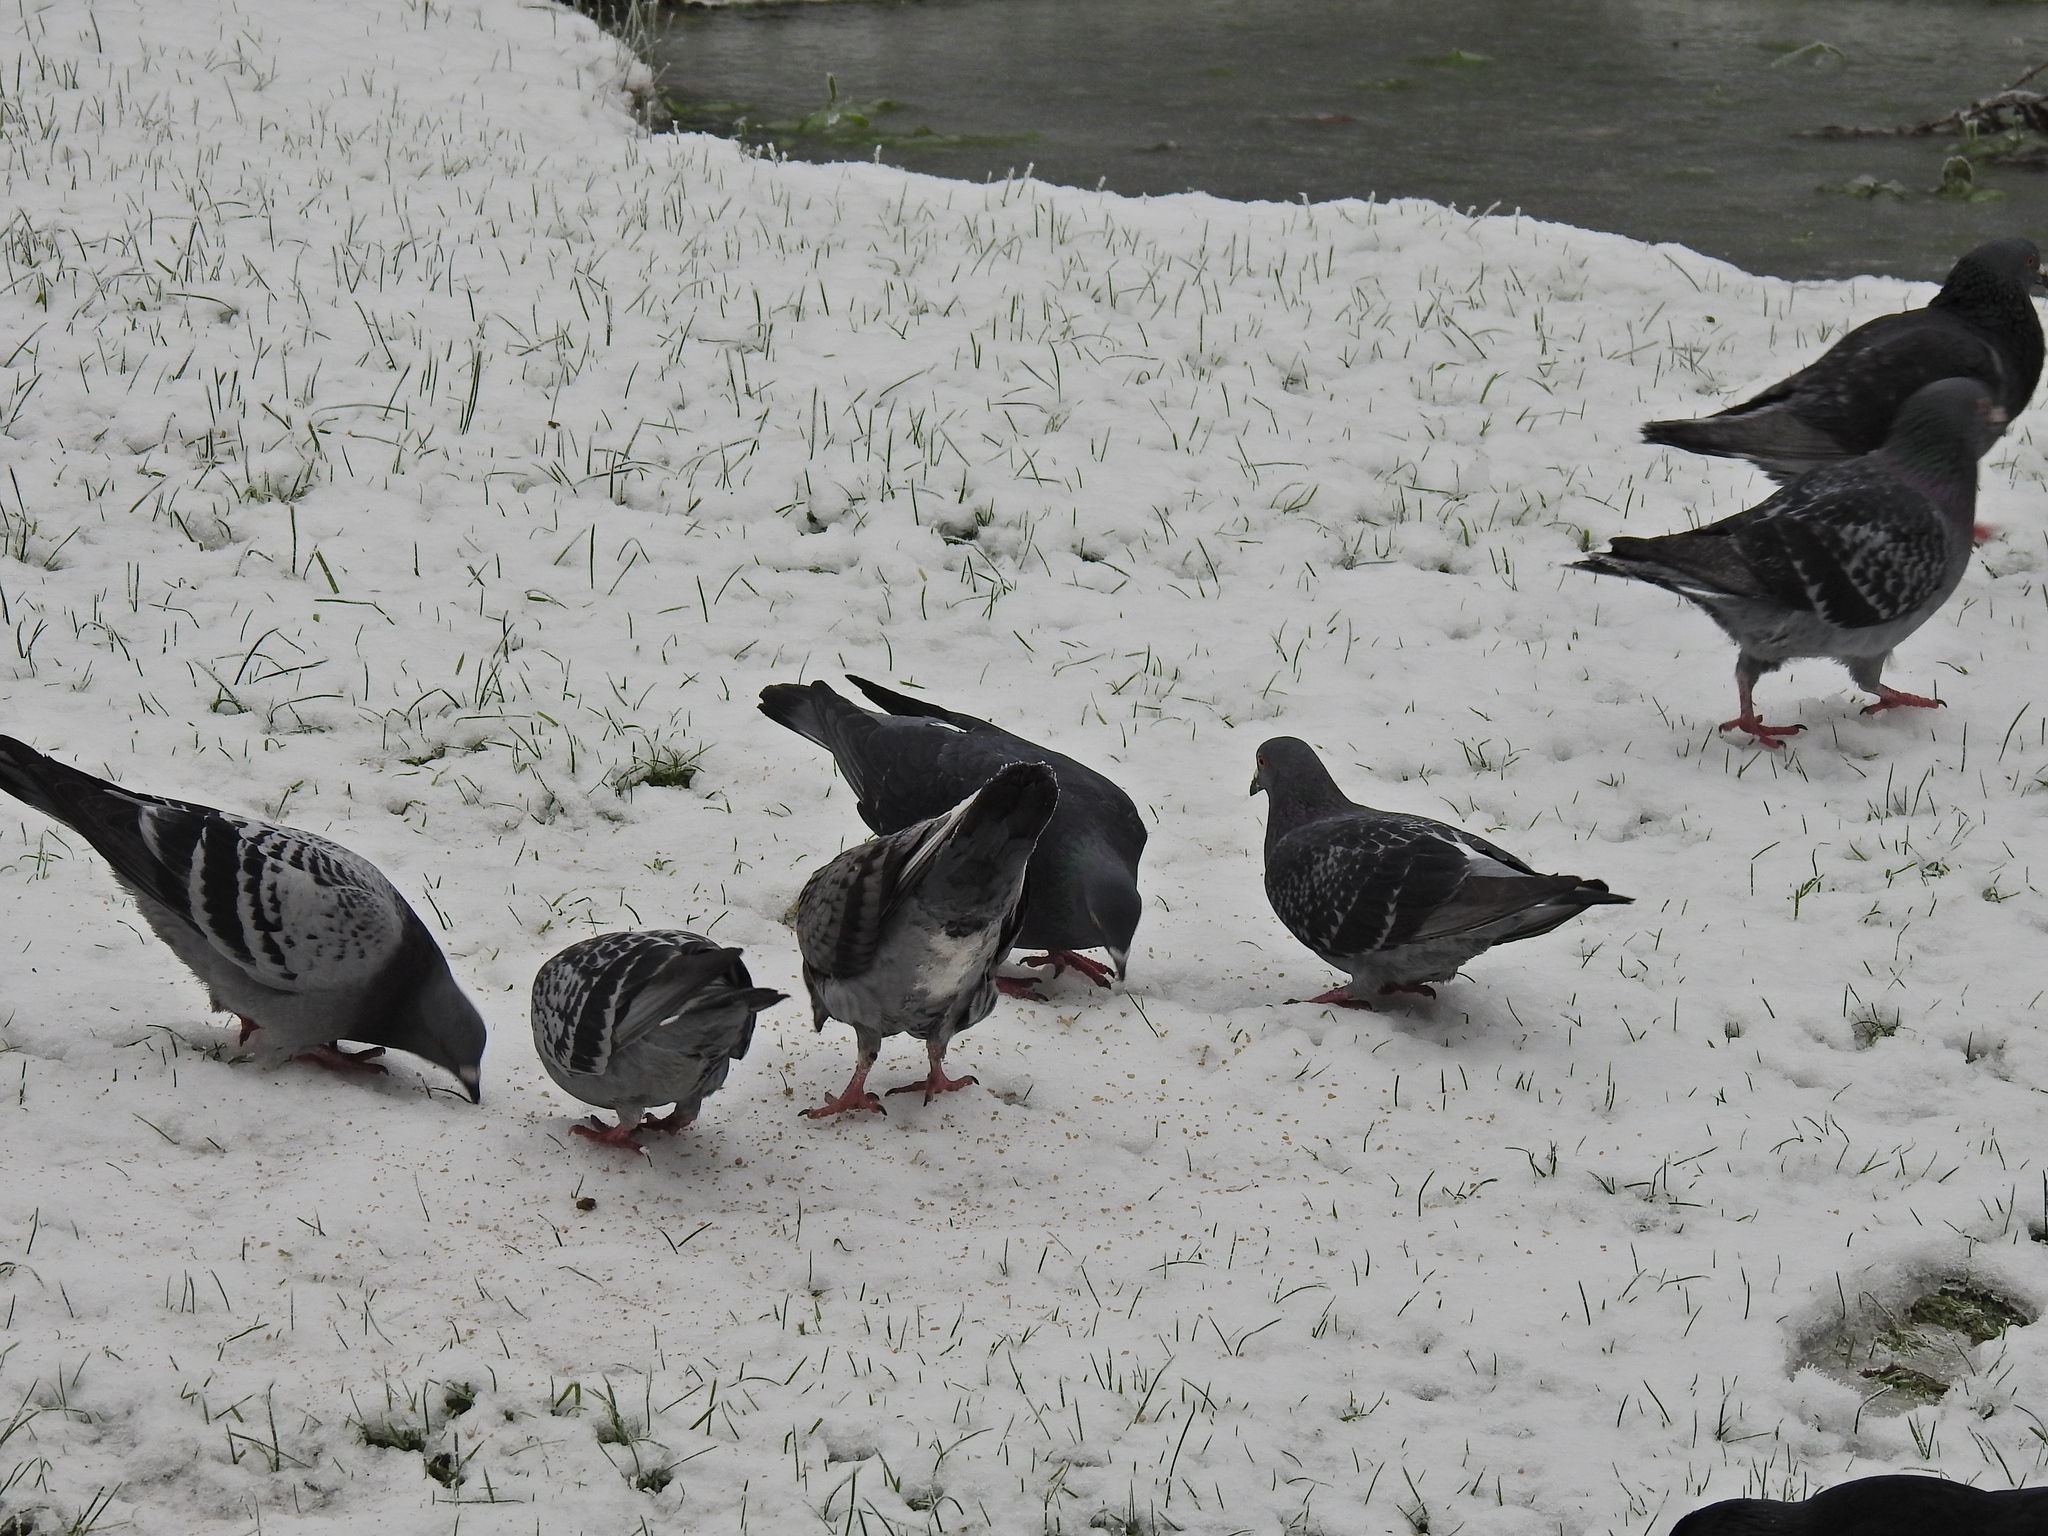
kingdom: Animalia
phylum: Chordata
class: Aves
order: Columbiformes
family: Columbidae
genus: Columba
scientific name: Columba livia
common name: Rock pigeon
